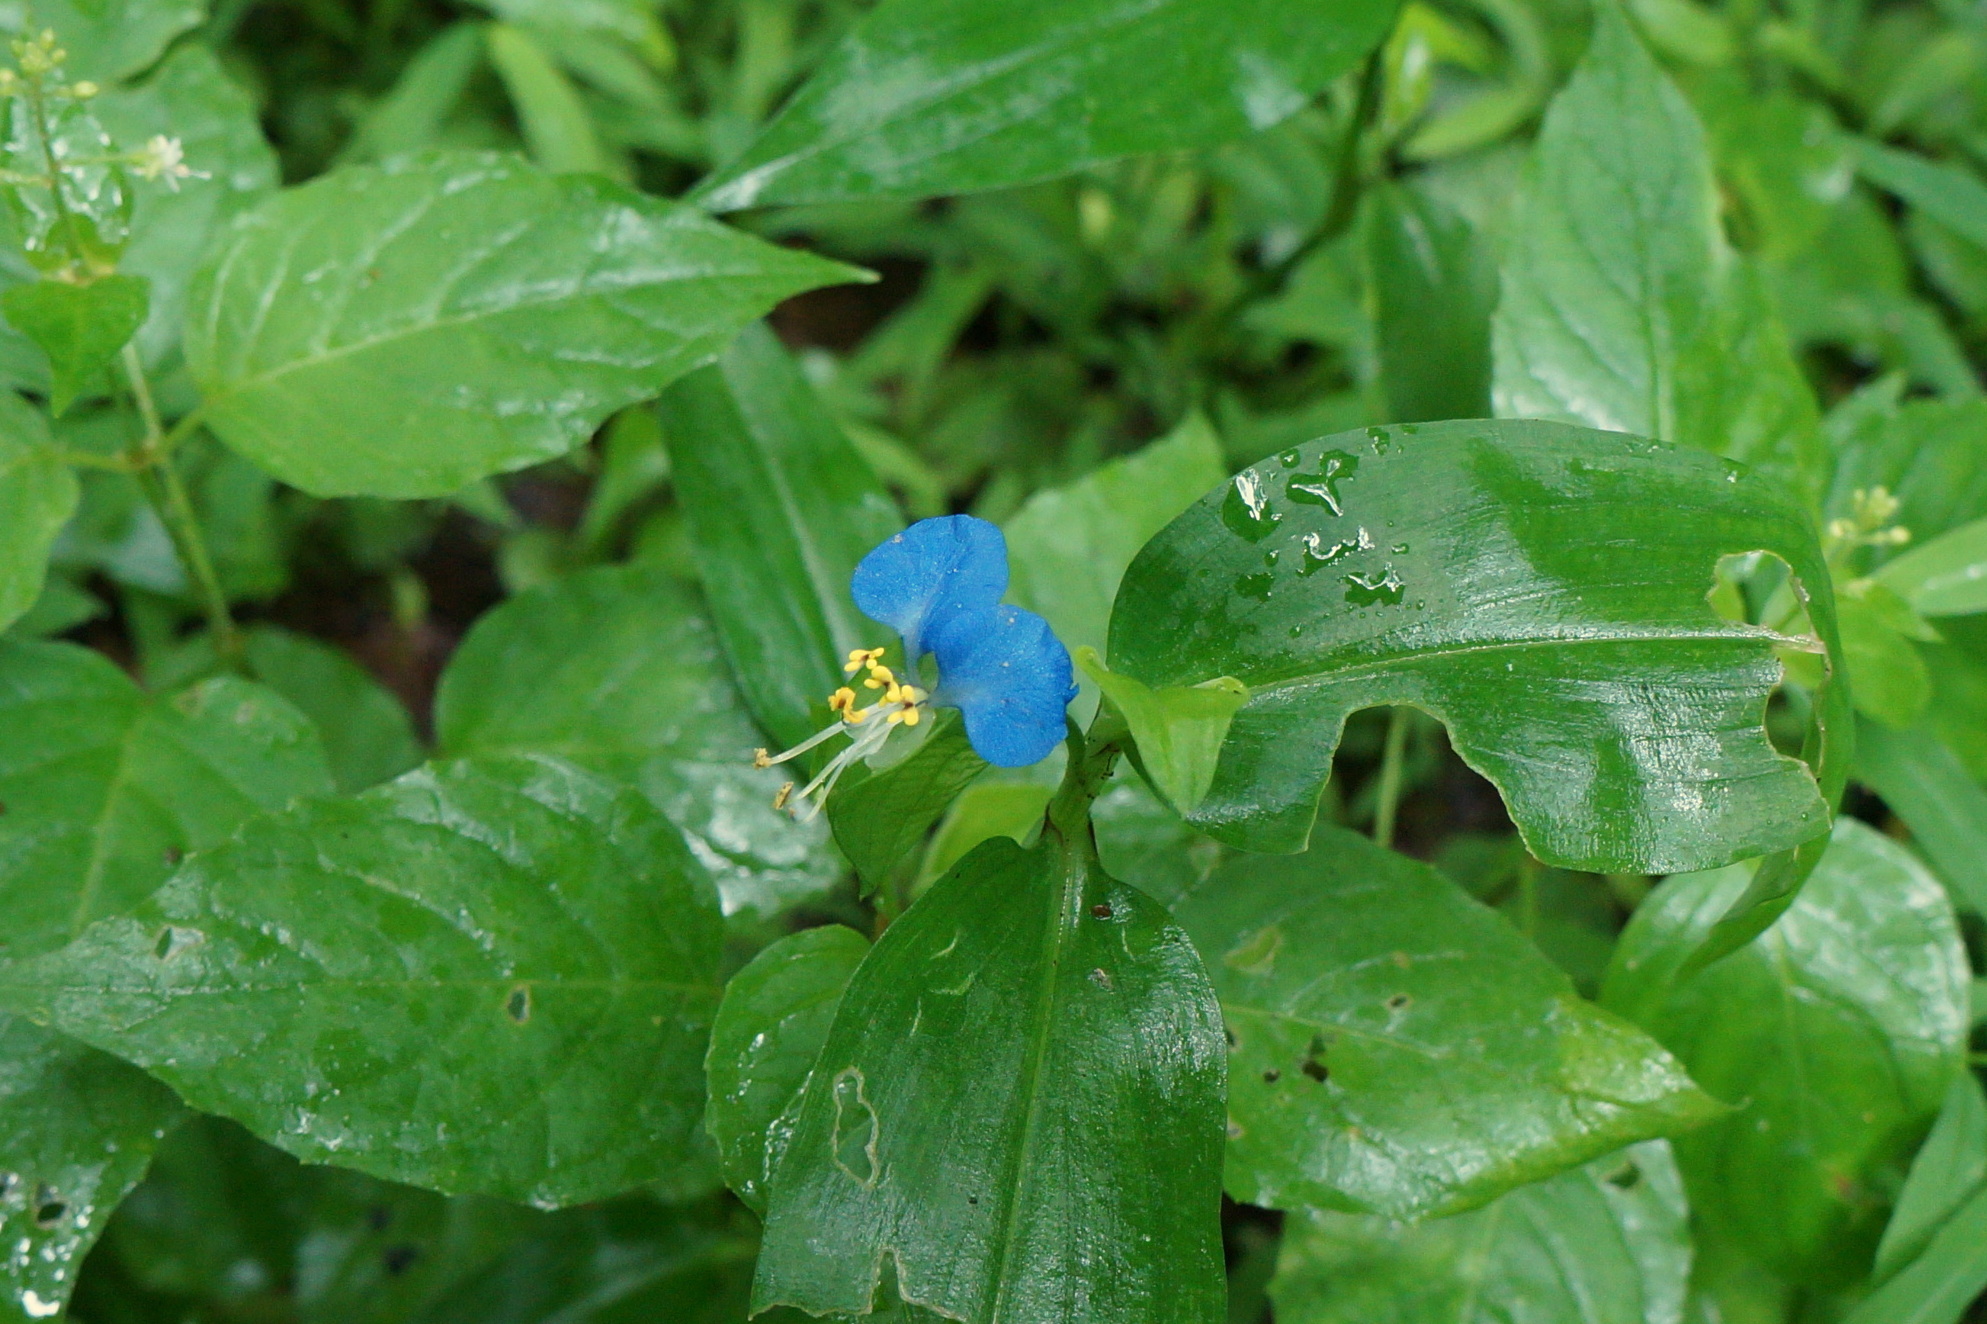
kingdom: Plantae
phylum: Tracheophyta
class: Liliopsida
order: Commelinales
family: Commelinaceae
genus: Commelina
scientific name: Commelina communis
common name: Asiatic dayflower
